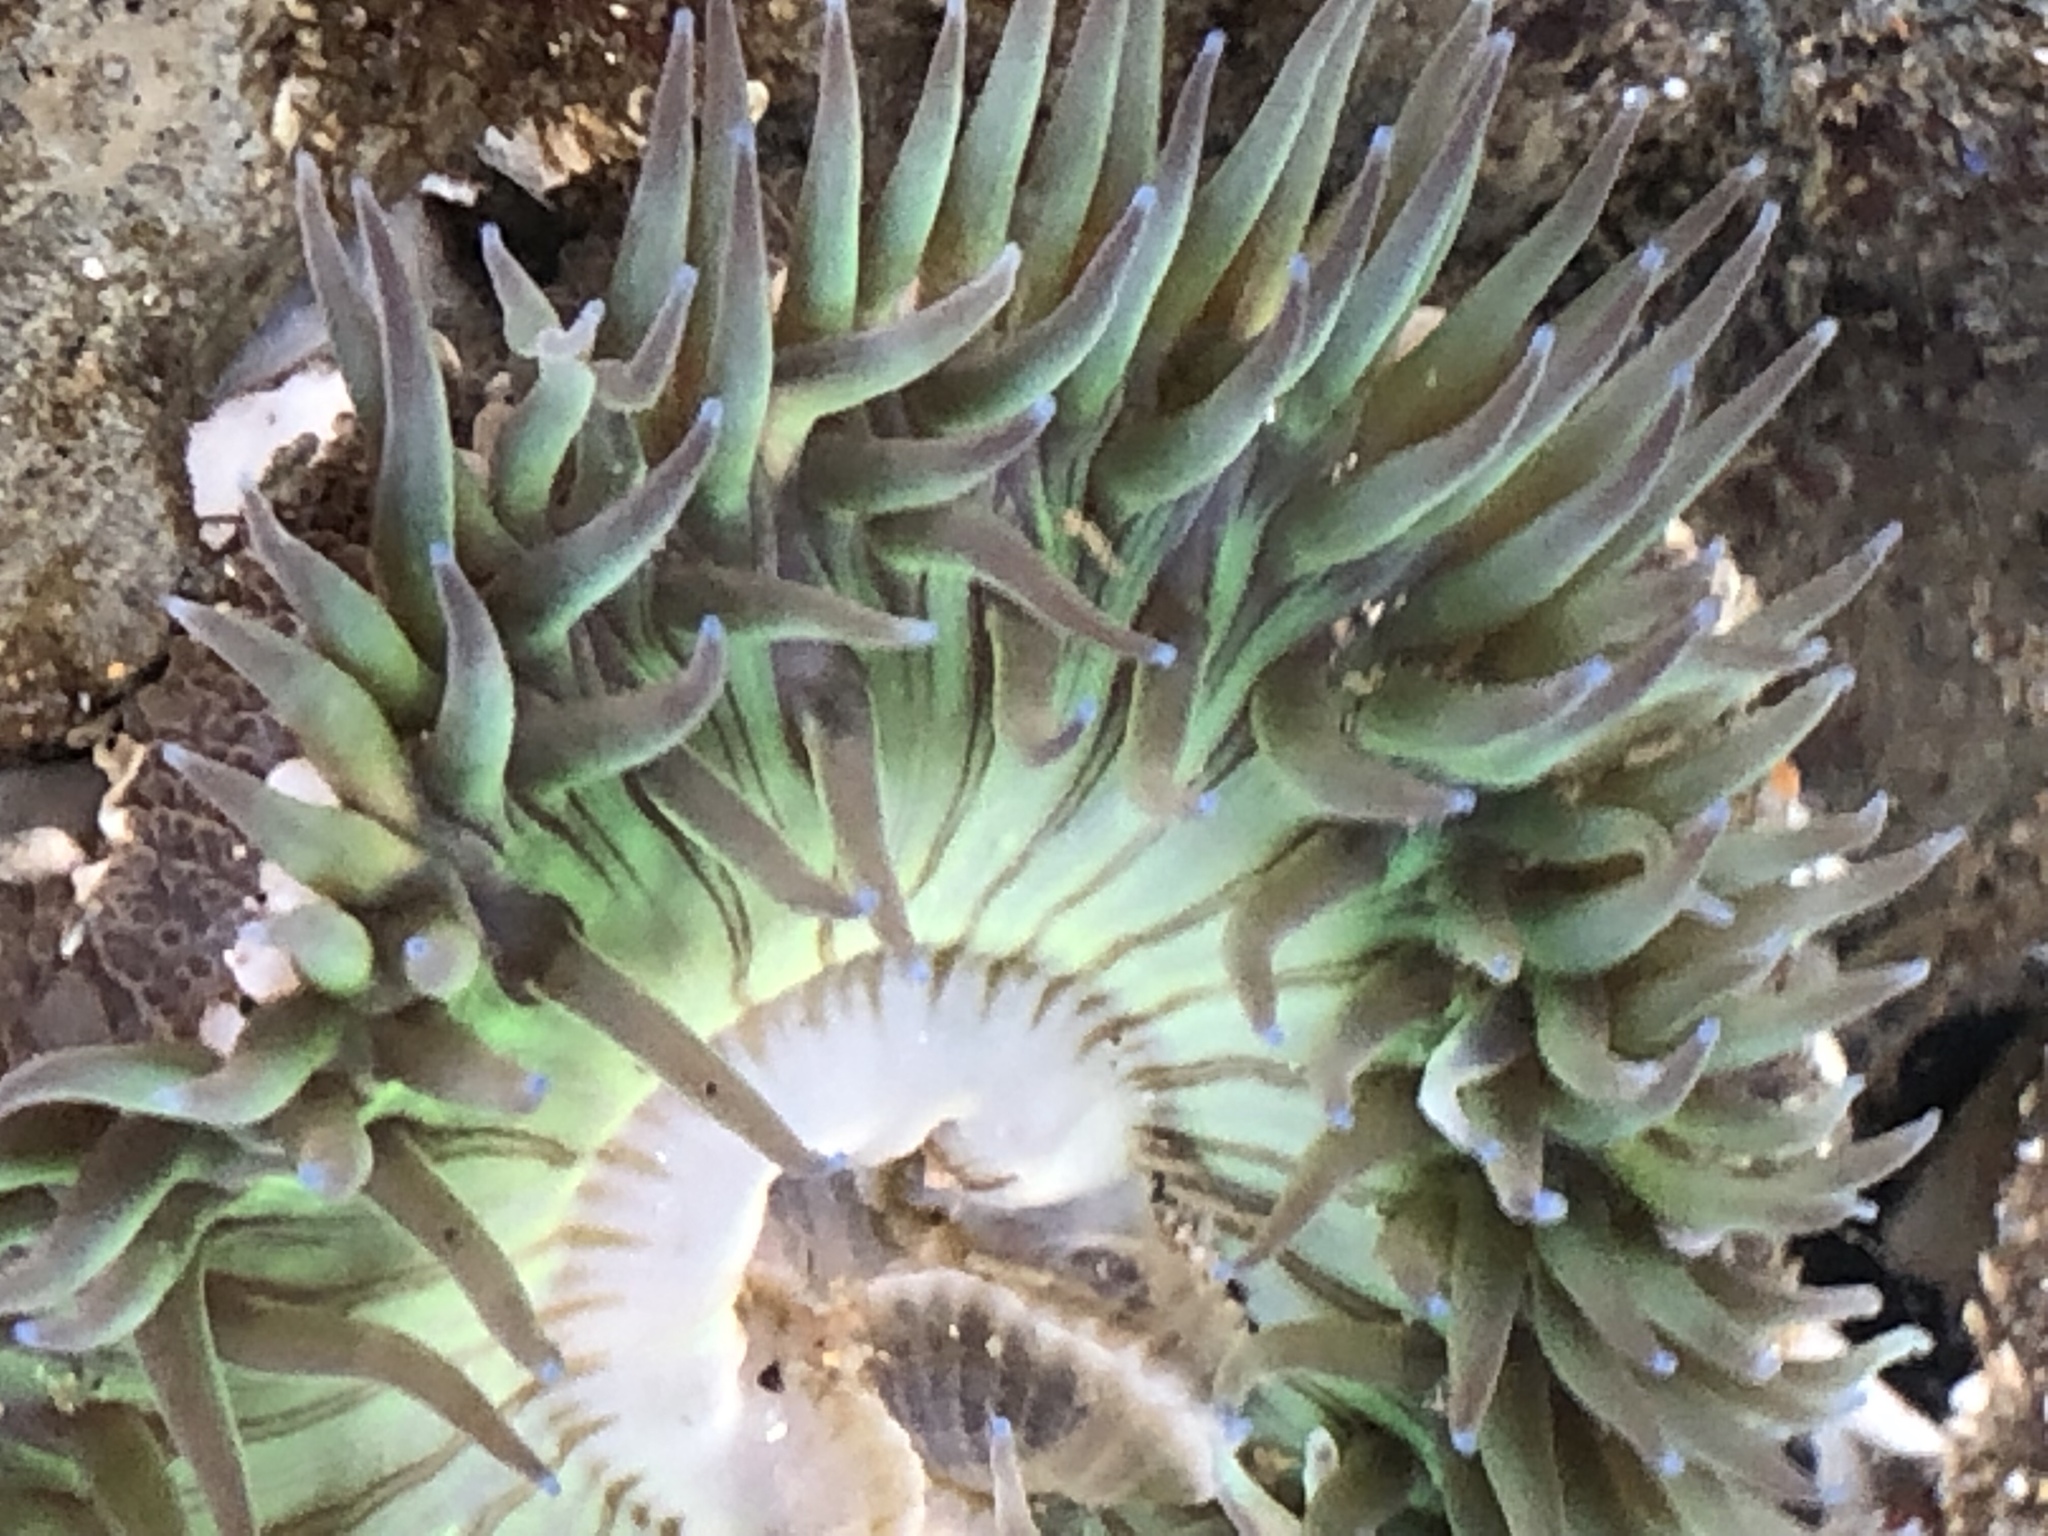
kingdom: Animalia
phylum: Cnidaria
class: Anthozoa
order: Actiniaria
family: Actiniidae
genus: Anthopleura
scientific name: Anthopleura sola
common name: Sun anemone
